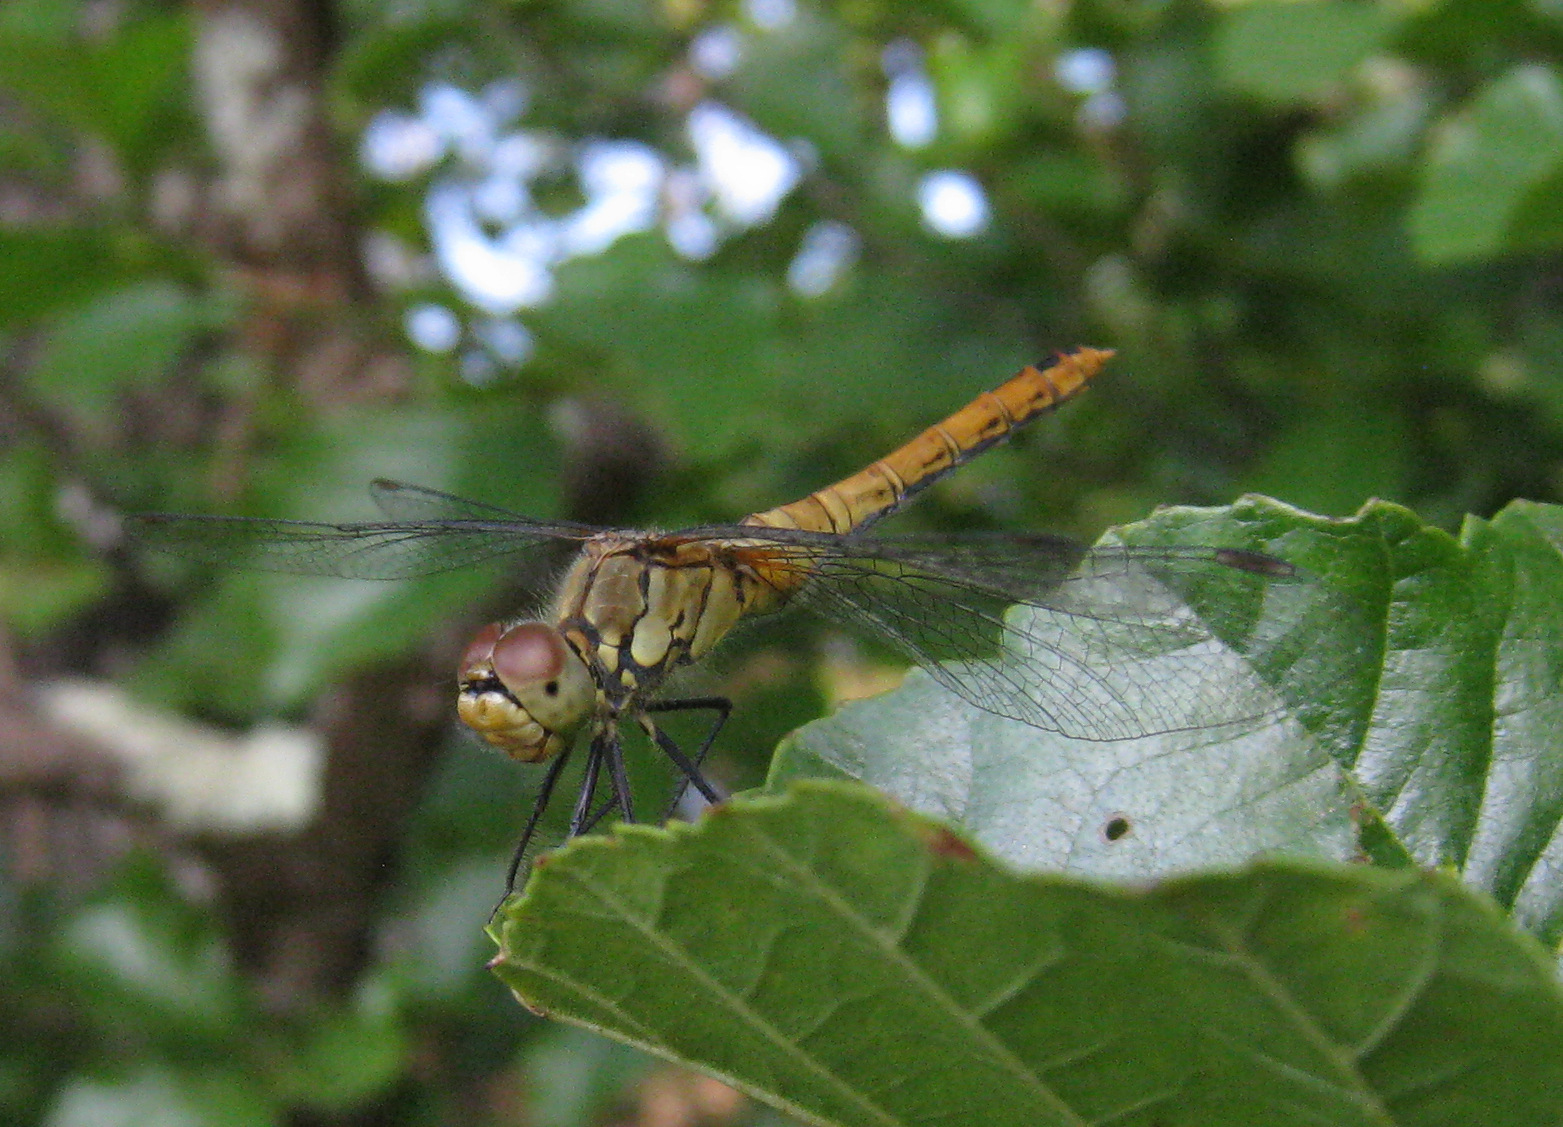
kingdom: Animalia
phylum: Arthropoda
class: Insecta
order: Odonata
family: Libellulidae
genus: Sympetrum
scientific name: Sympetrum sanguineum
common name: Ruddy darter
